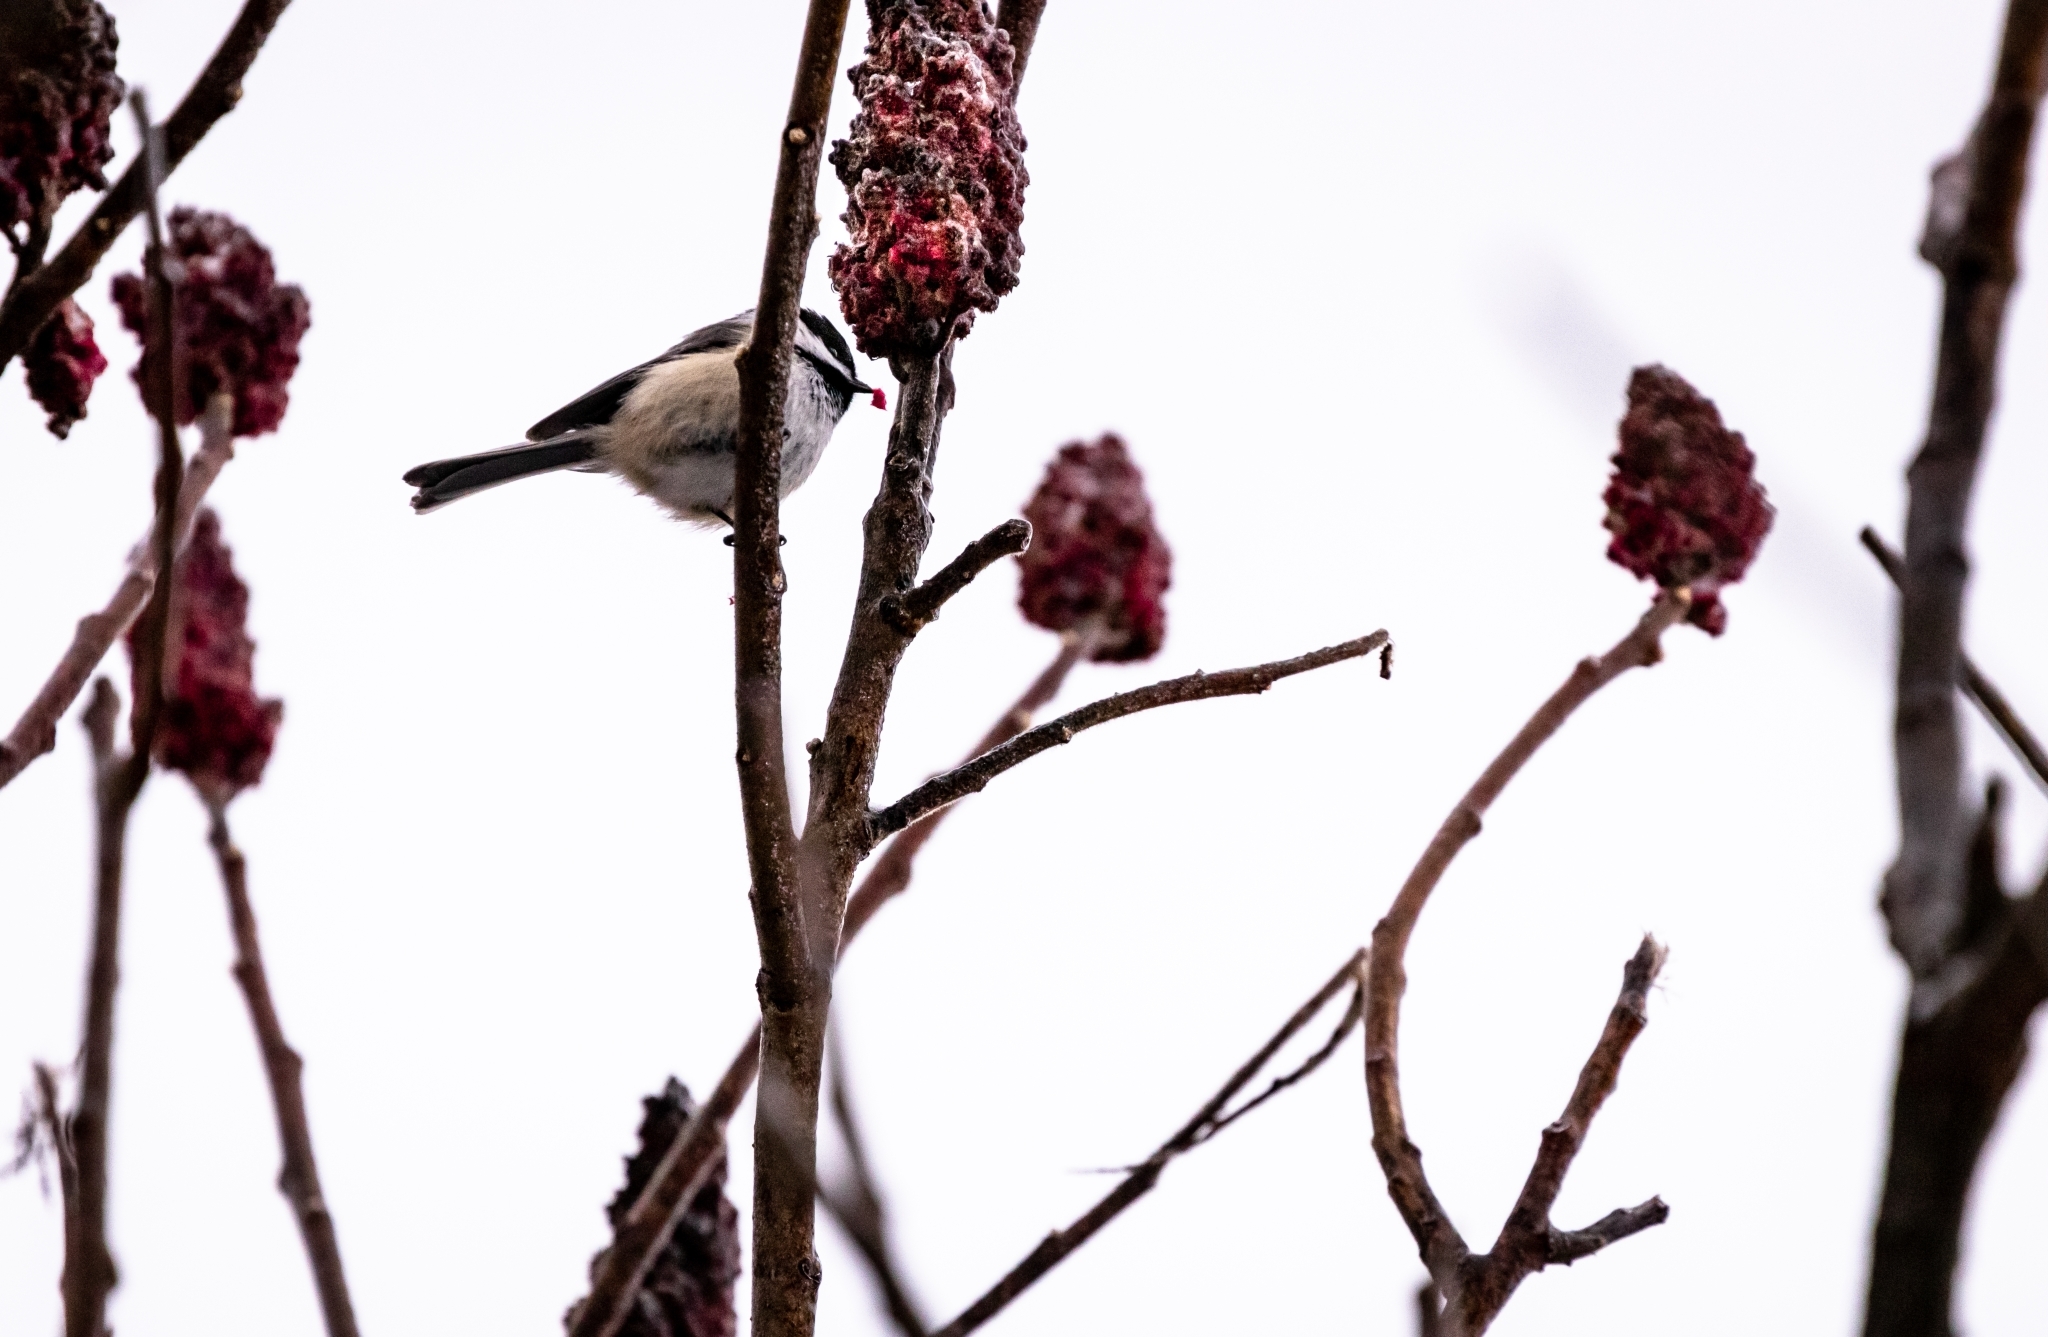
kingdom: Animalia
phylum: Chordata
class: Aves
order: Passeriformes
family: Paridae
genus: Poecile
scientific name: Poecile atricapillus
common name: Black-capped chickadee
